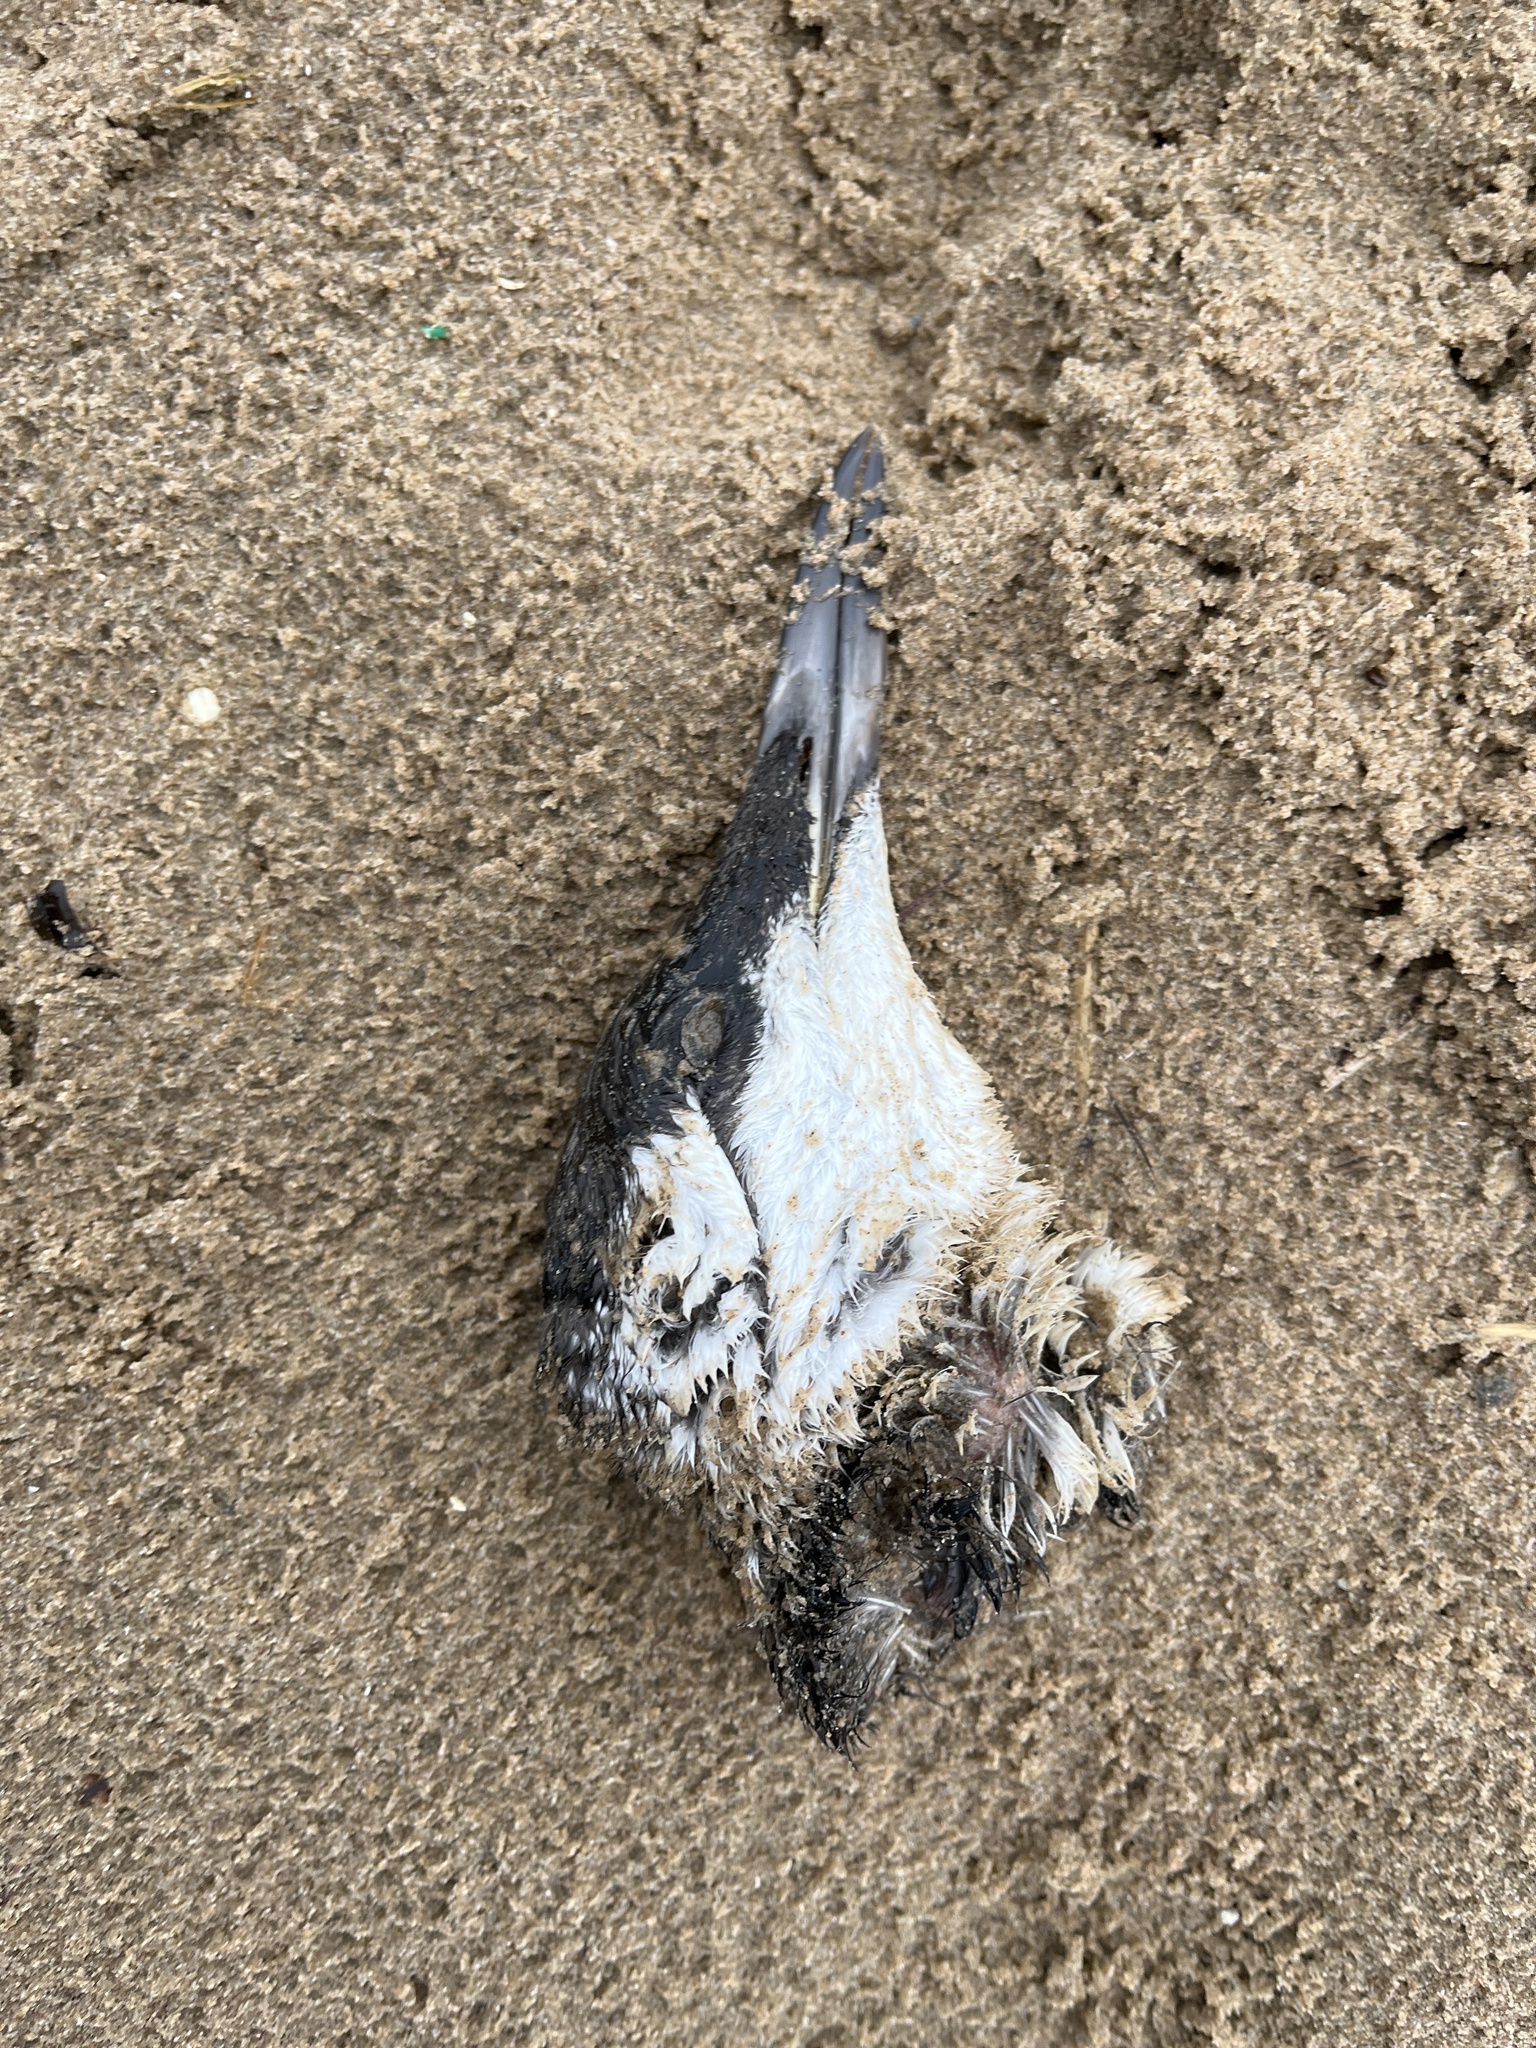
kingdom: Animalia
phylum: Chordata
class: Aves
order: Charadriiformes
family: Alcidae
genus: Uria
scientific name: Uria aalge
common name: Common murre
